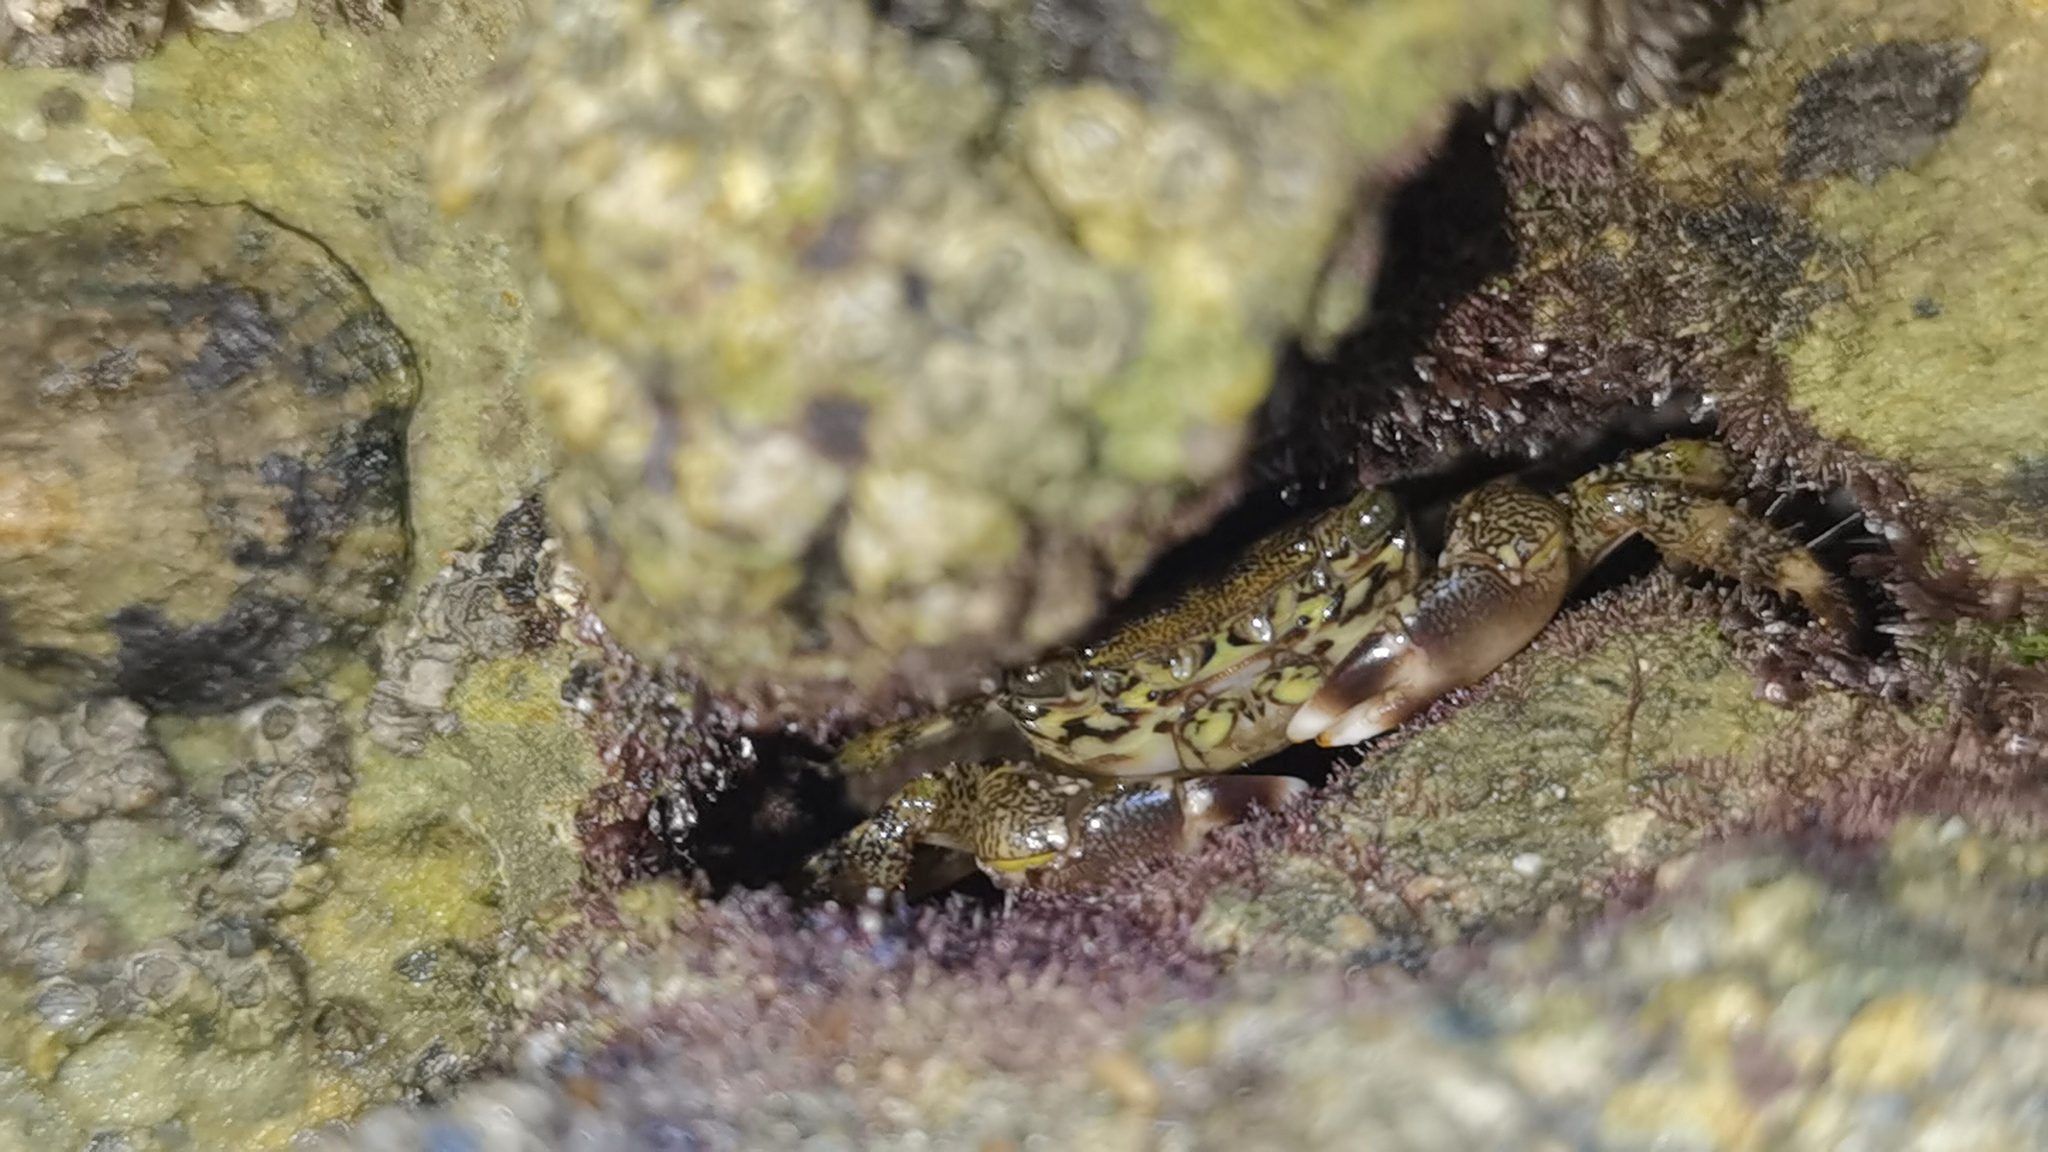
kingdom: Animalia
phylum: Arthropoda
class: Malacostraca
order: Decapoda
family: Grapsidae
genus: Pachygrapsus
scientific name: Pachygrapsus marmoratus
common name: Marbled rock crab
